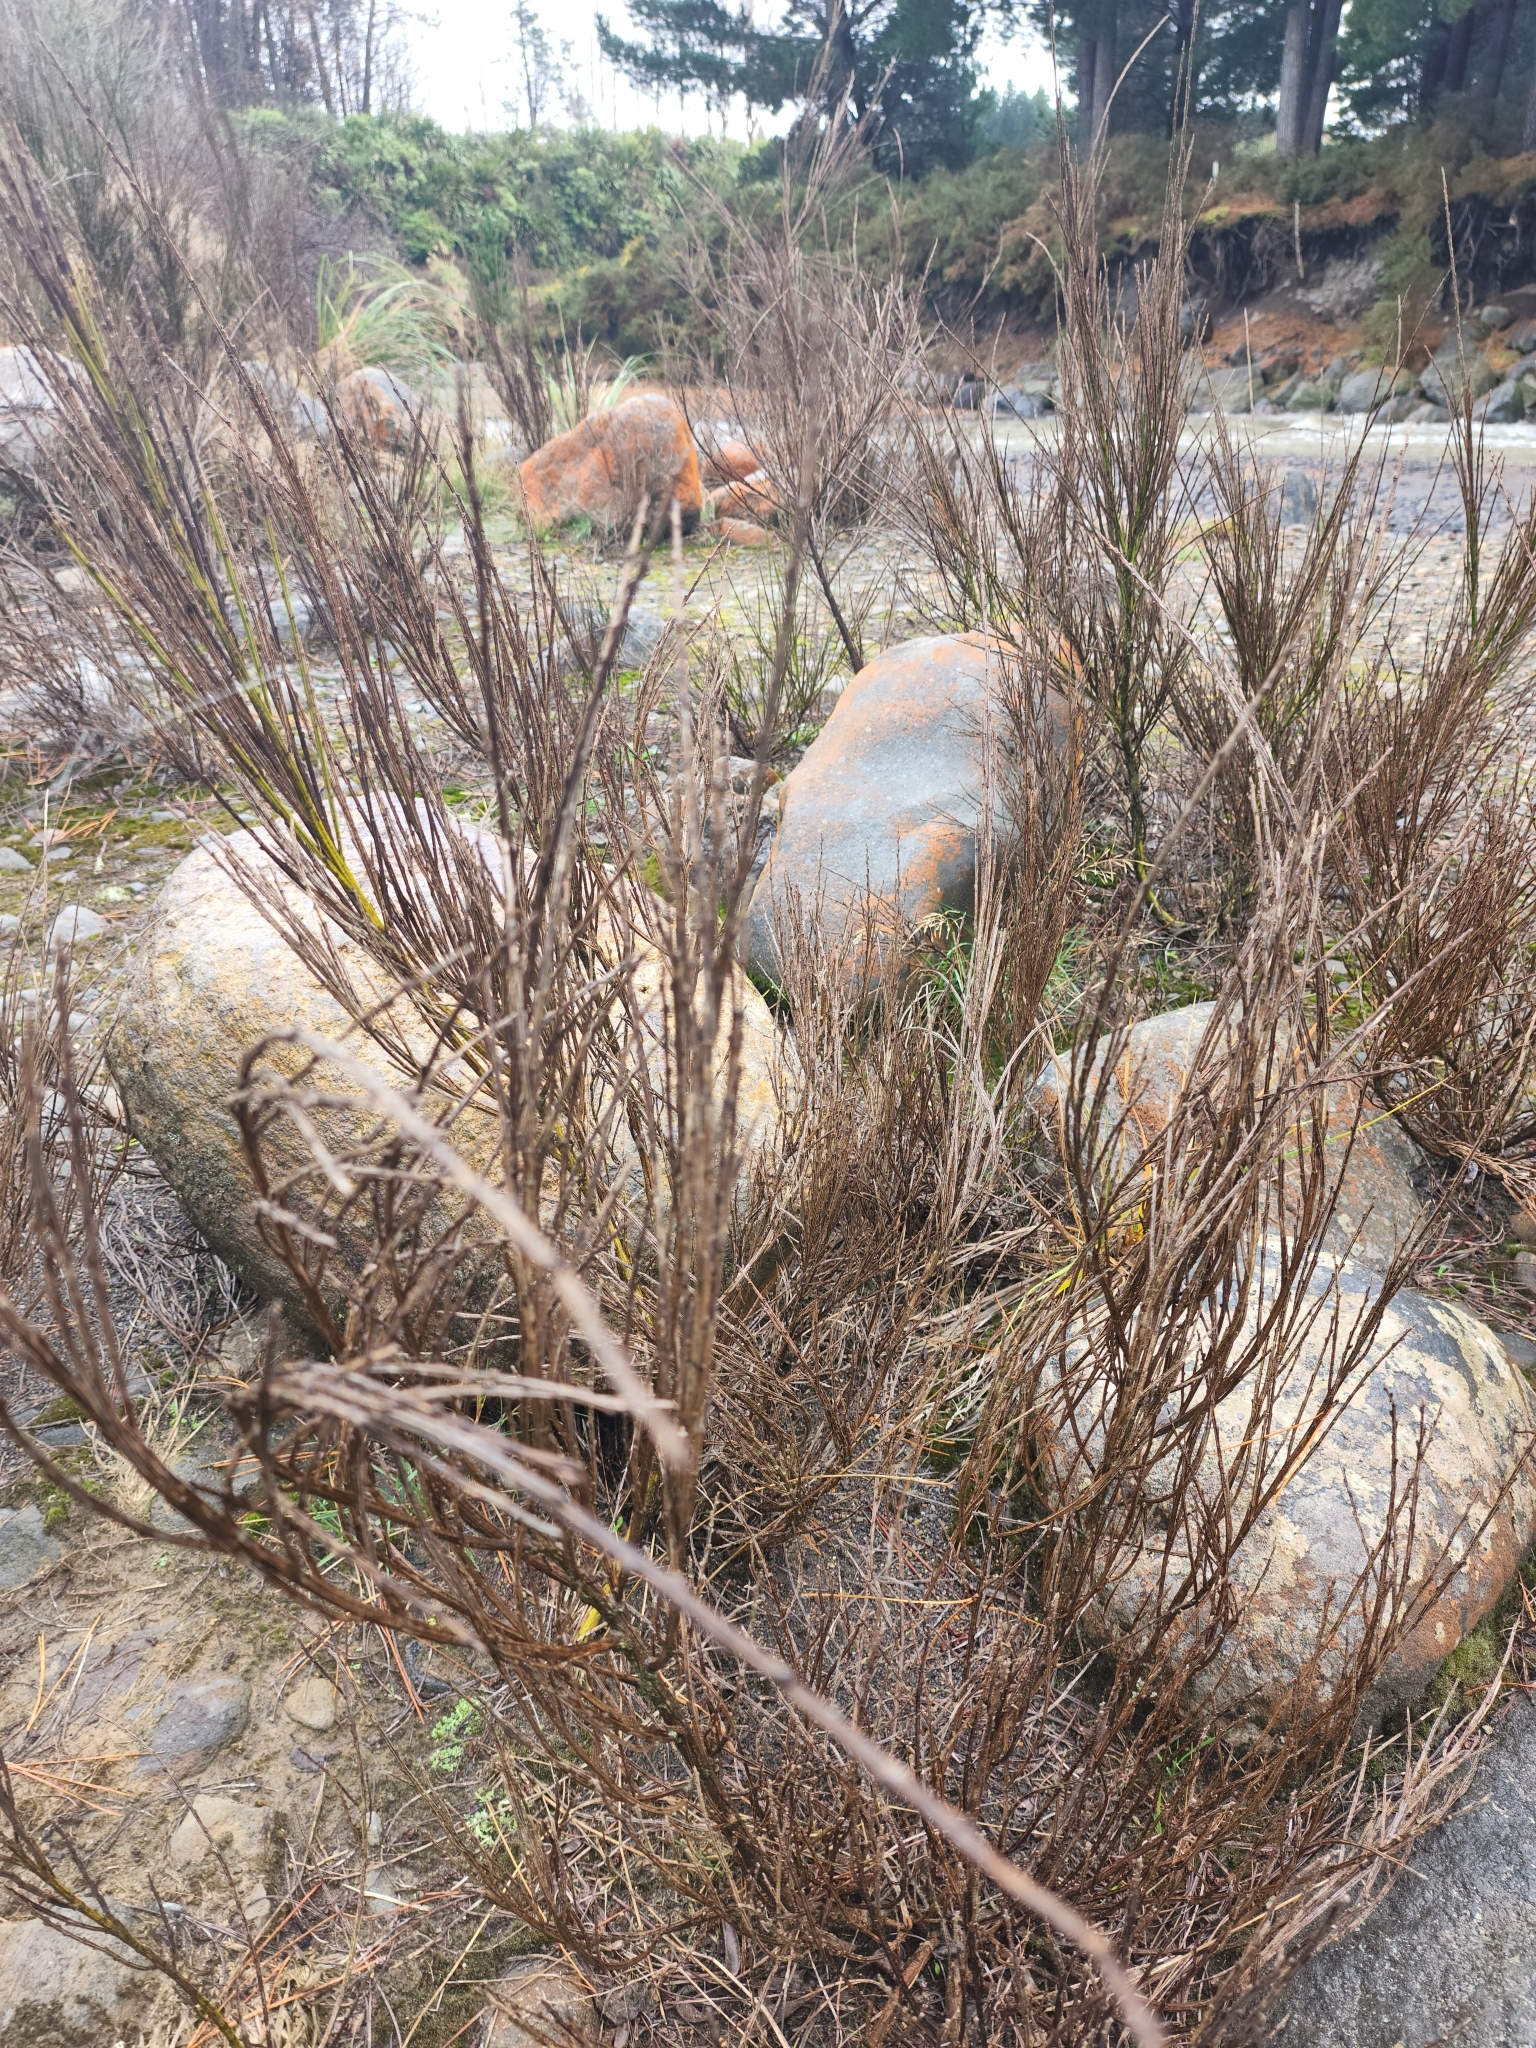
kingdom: Plantae
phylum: Tracheophyta
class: Magnoliopsida
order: Fabales
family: Fabaceae
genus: Cytisus
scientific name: Cytisus scoparius
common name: Scotch broom
